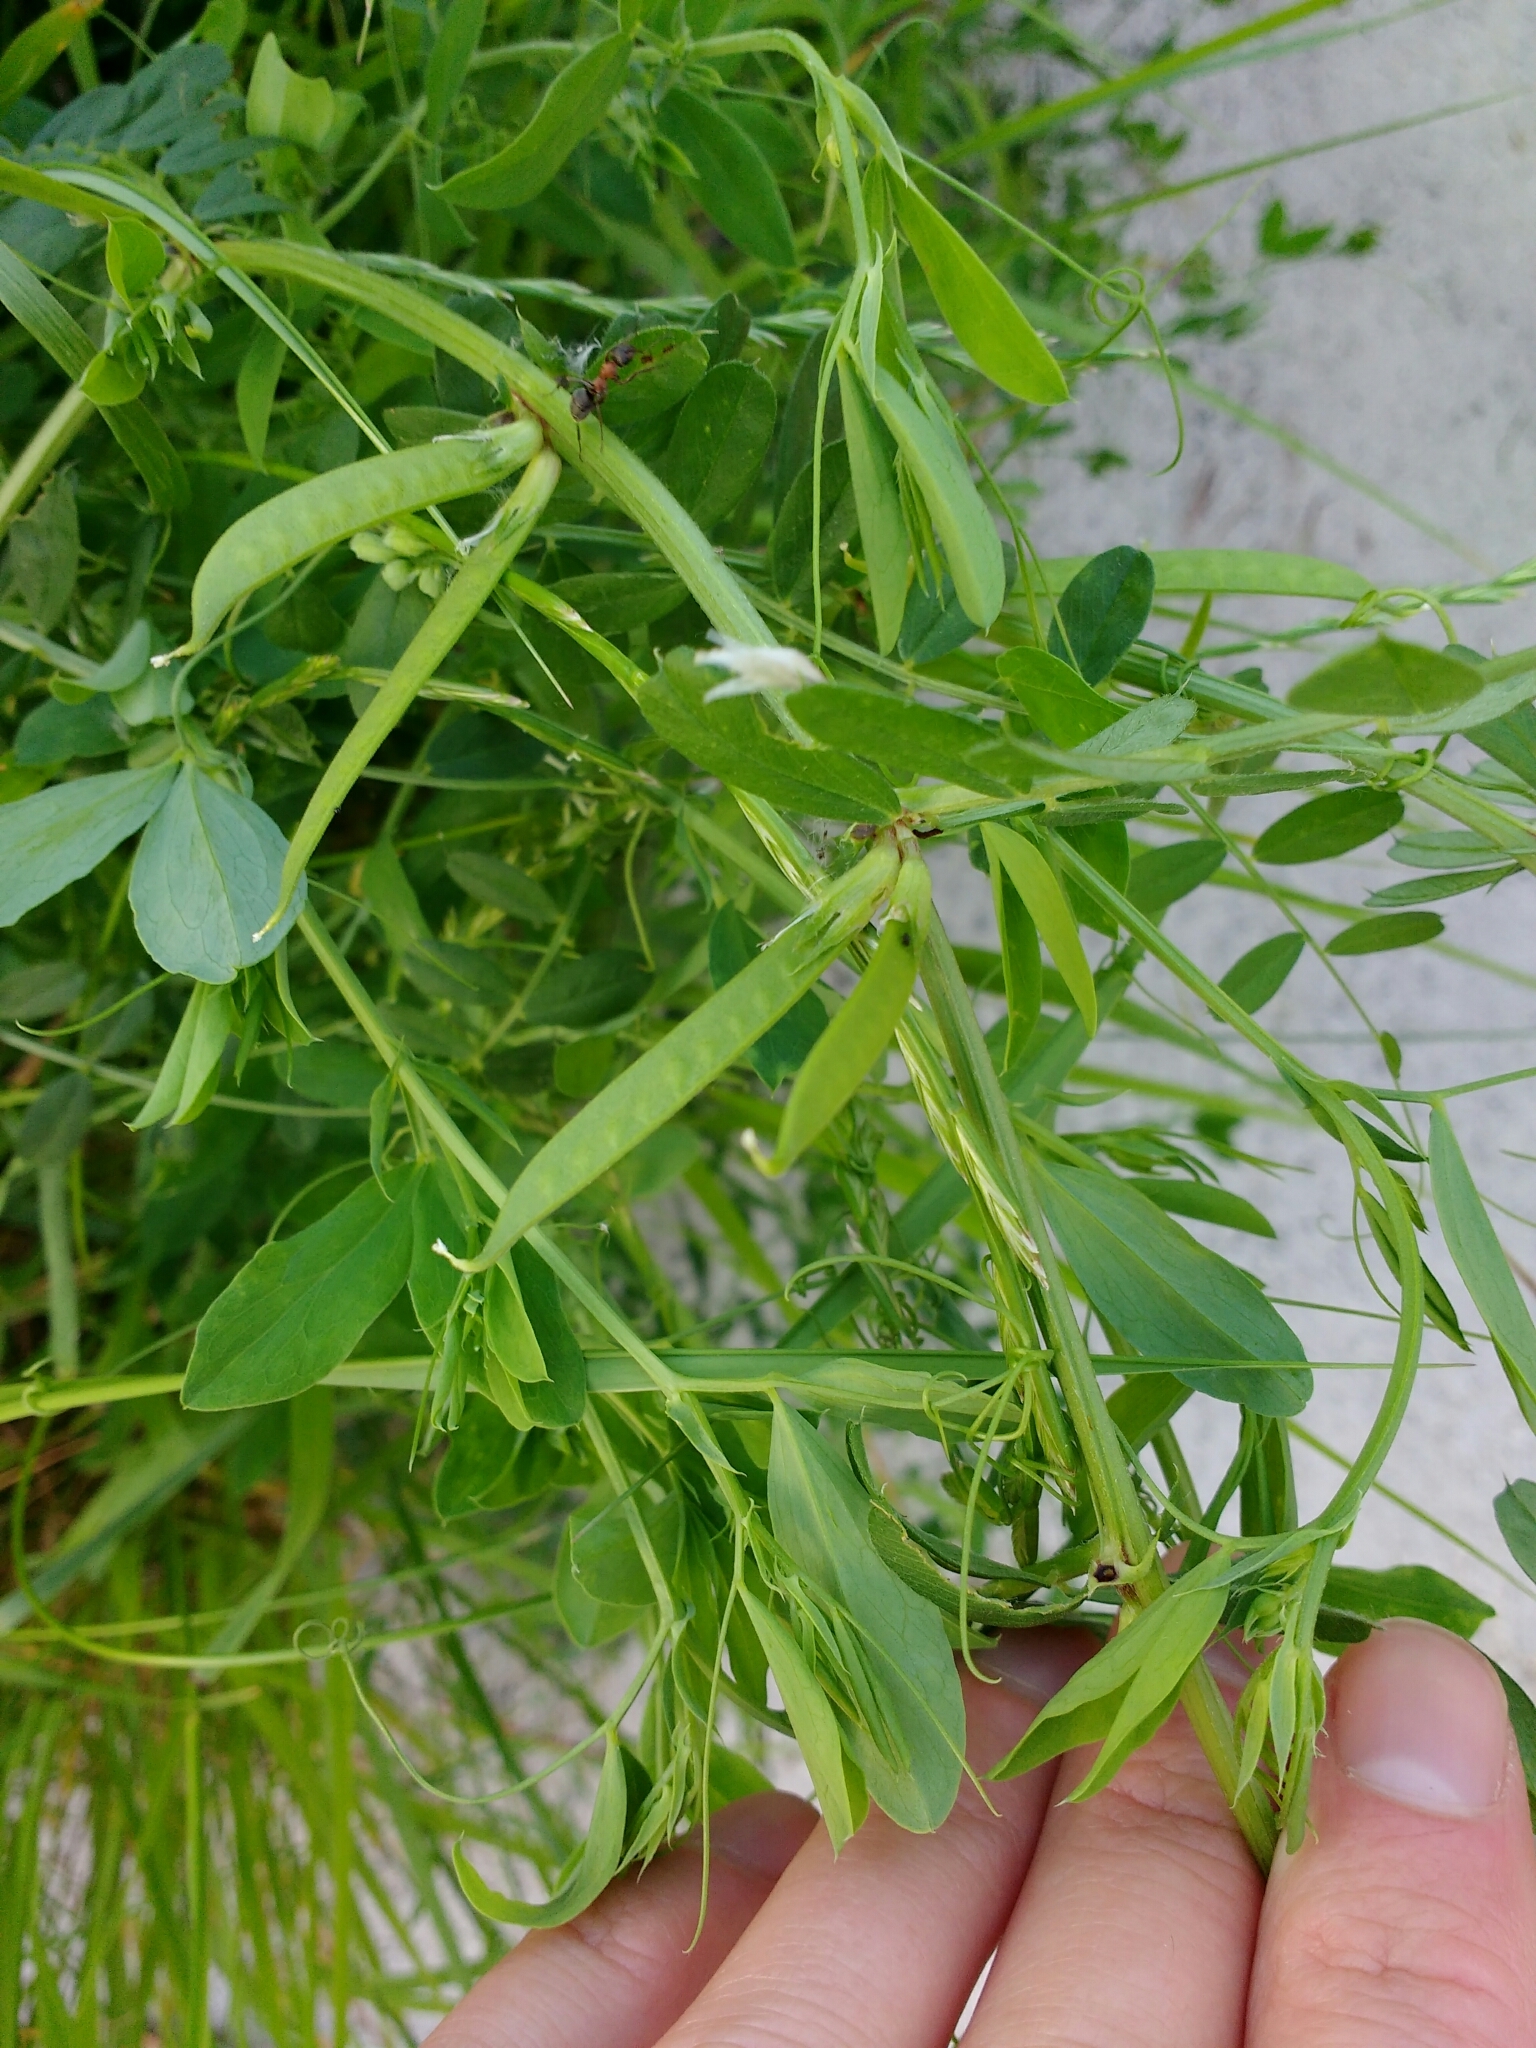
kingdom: Plantae
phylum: Tracheophyta
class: Magnoliopsida
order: Fabales
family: Fabaceae
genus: Vicia
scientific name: Vicia sativa
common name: Garden vetch
